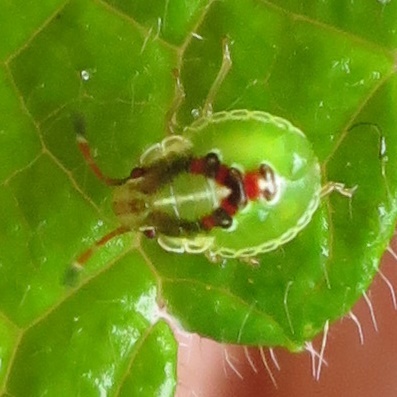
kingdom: Animalia
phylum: Arthropoda
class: Insecta
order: Hemiptera
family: Acanthosomatidae
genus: Oncacontias
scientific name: Oncacontias vittatus
